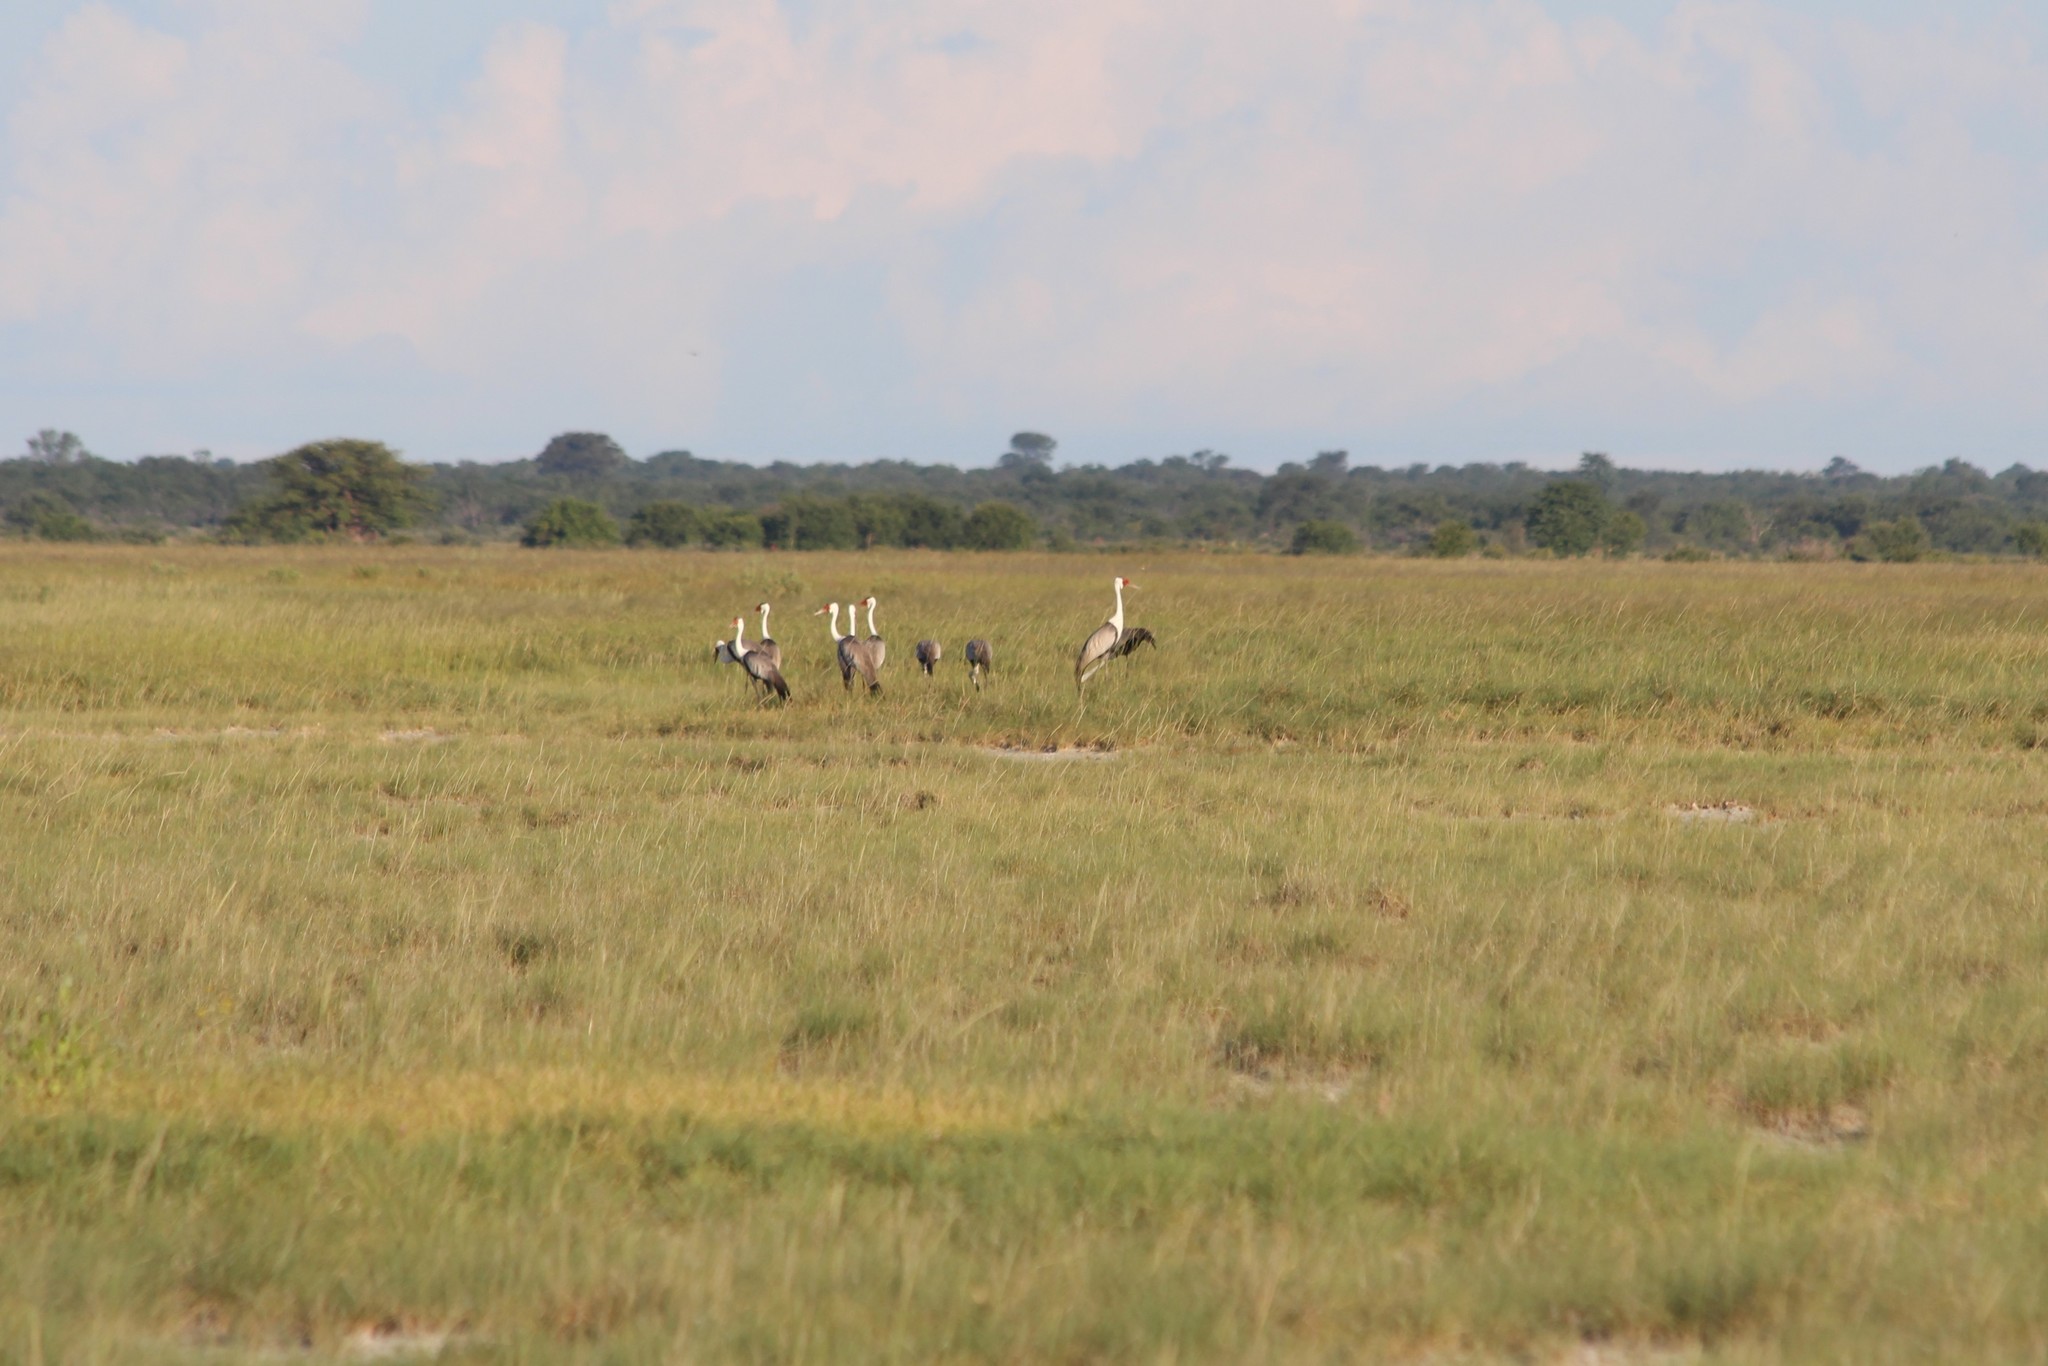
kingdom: Animalia
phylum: Chordata
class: Aves
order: Gruiformes
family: Gruidae
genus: Bugeranus
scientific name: Bugeranus carunculatus
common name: Wattled crane
